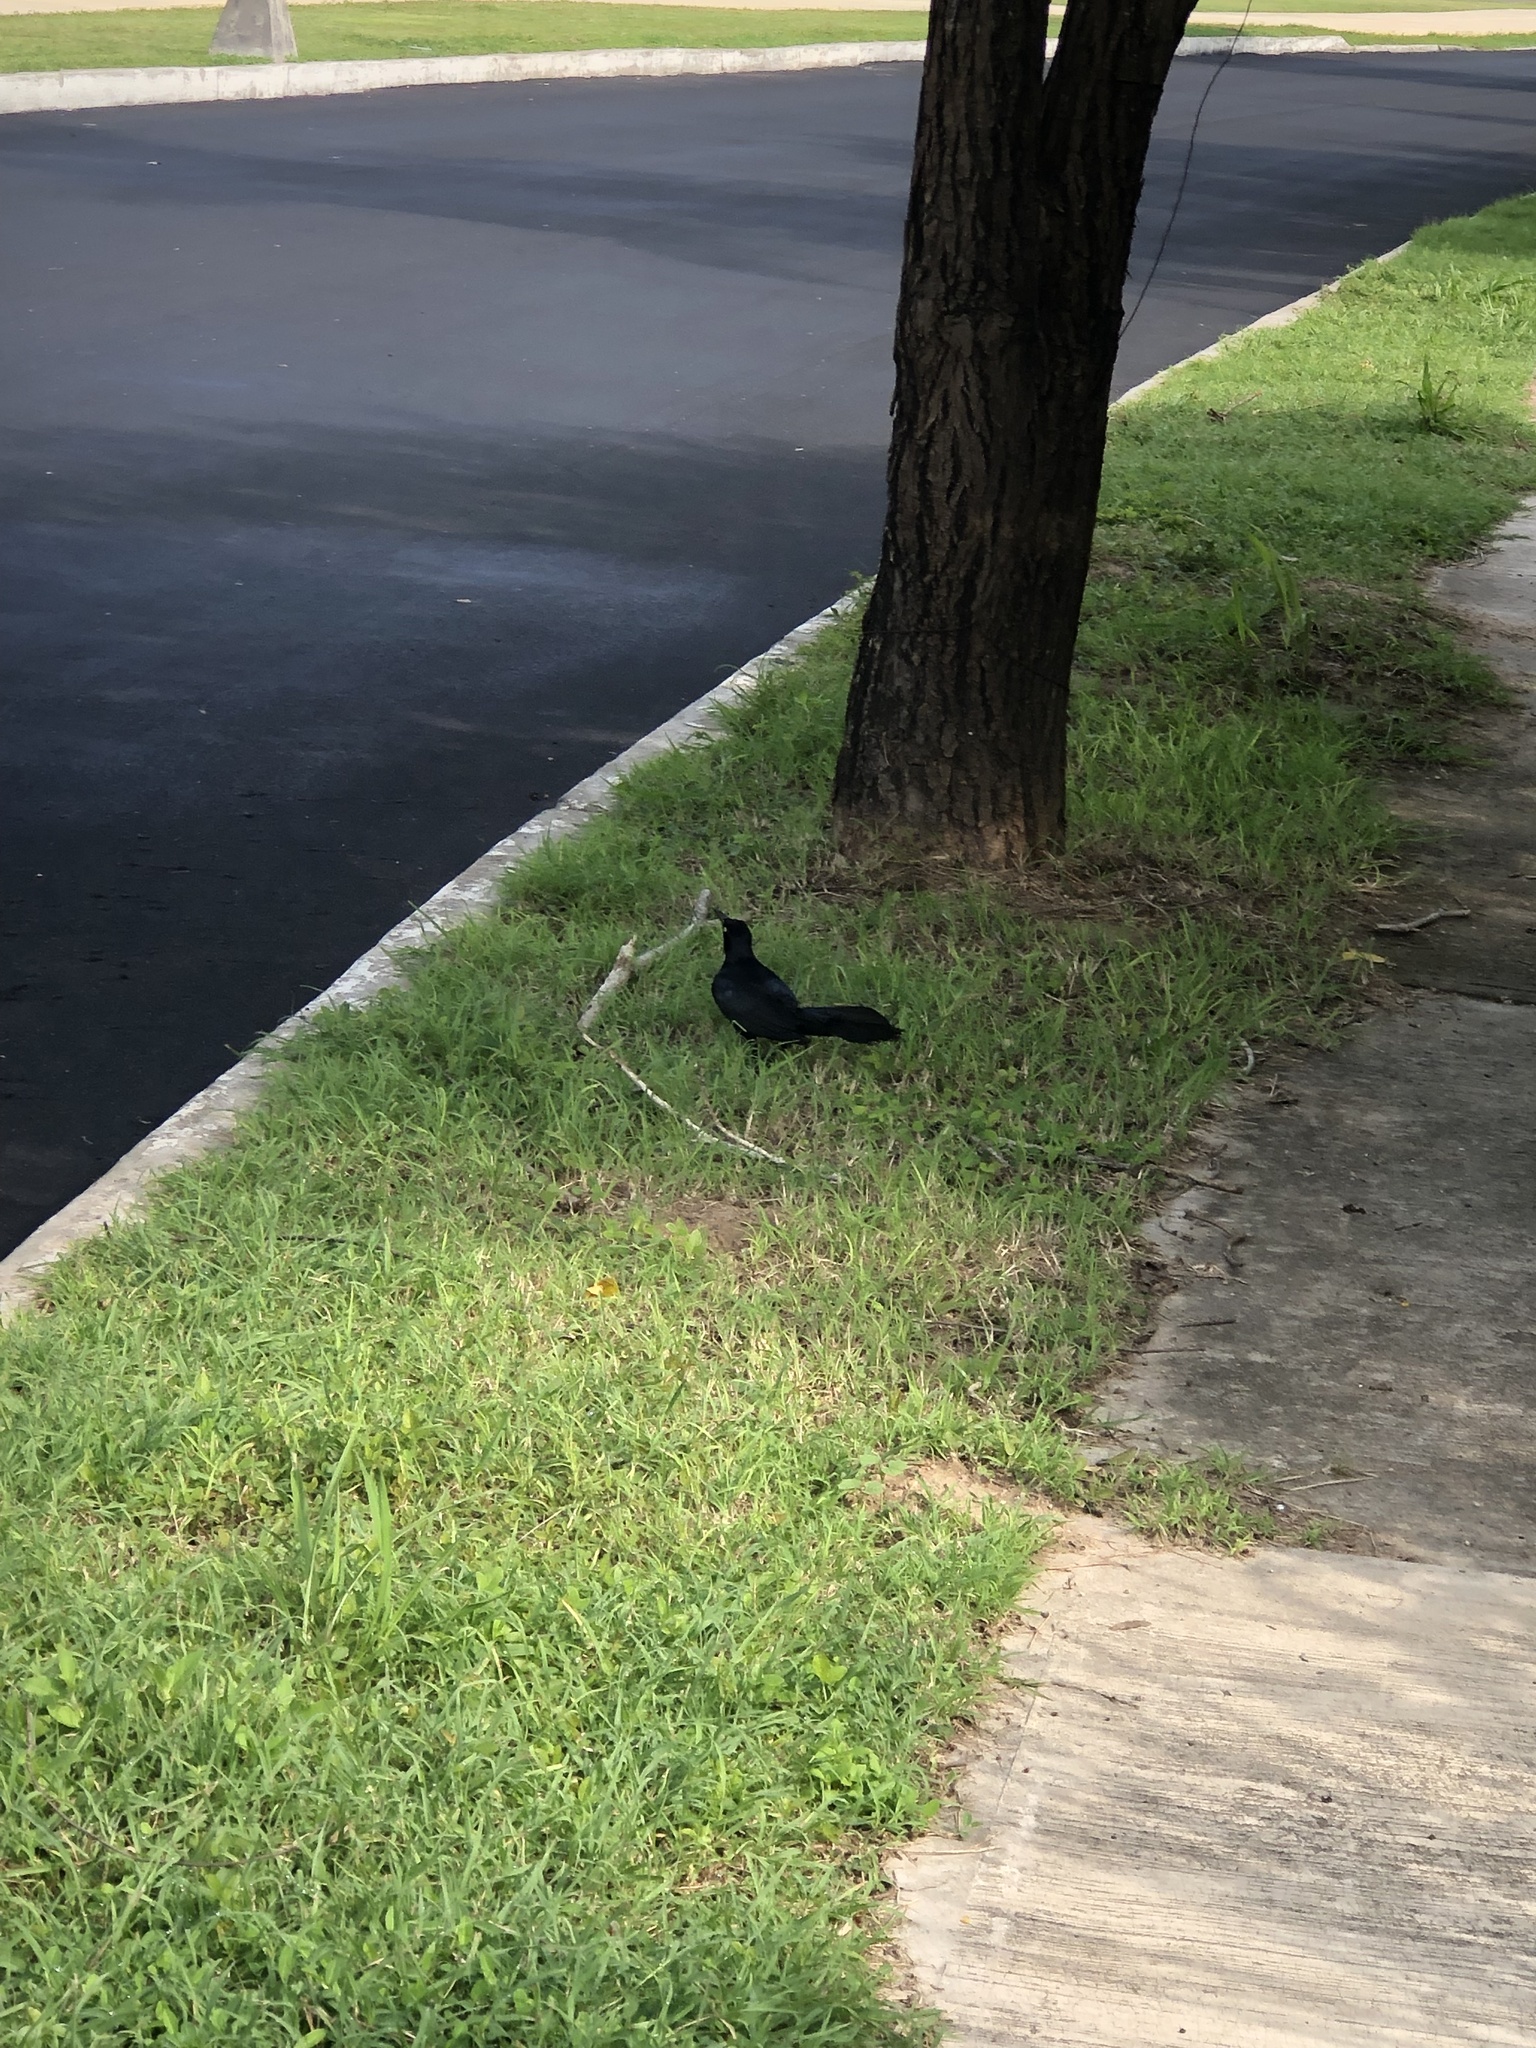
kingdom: Animalia
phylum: Chordata
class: Aves
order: Passeriformes
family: Icteridae
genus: Quiscalus
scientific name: Quiscalus mexicanus
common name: Great-tailed grackle
